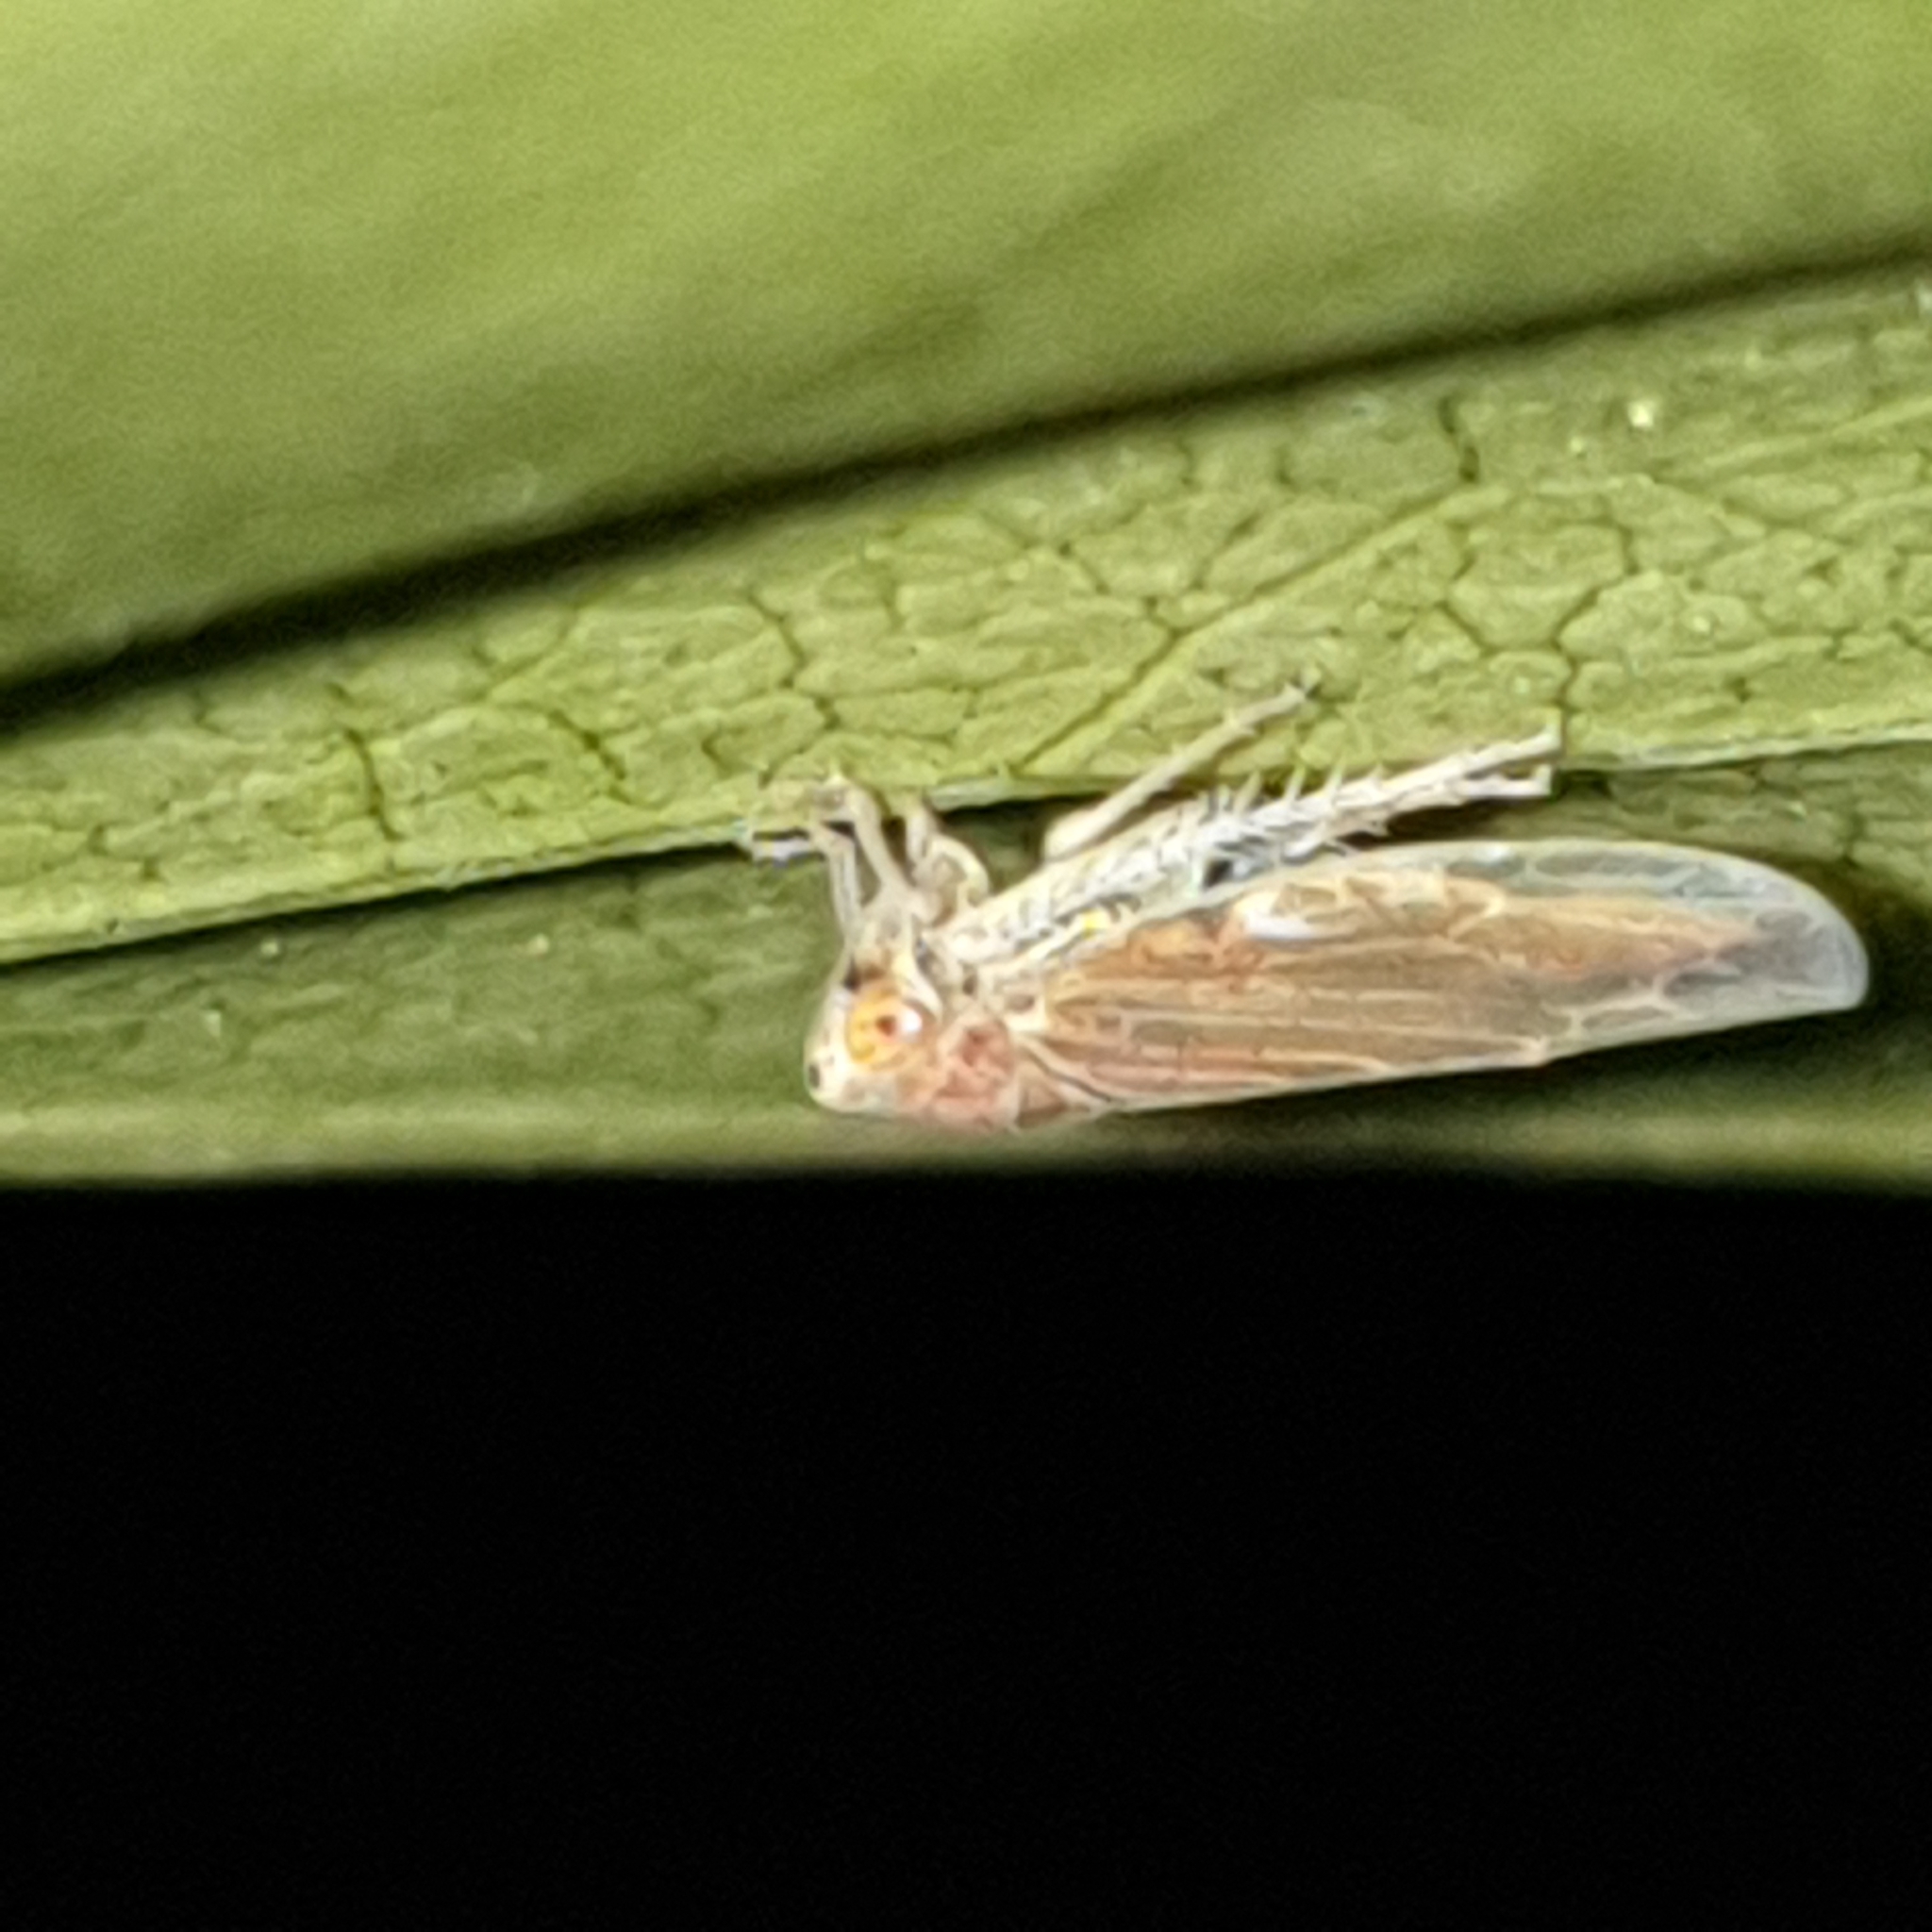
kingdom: Animalia
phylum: Arthropoda
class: Insecta
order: Hemiptera
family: Cicadellidae
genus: Idiodonus
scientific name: Idiodonus cruentatus
